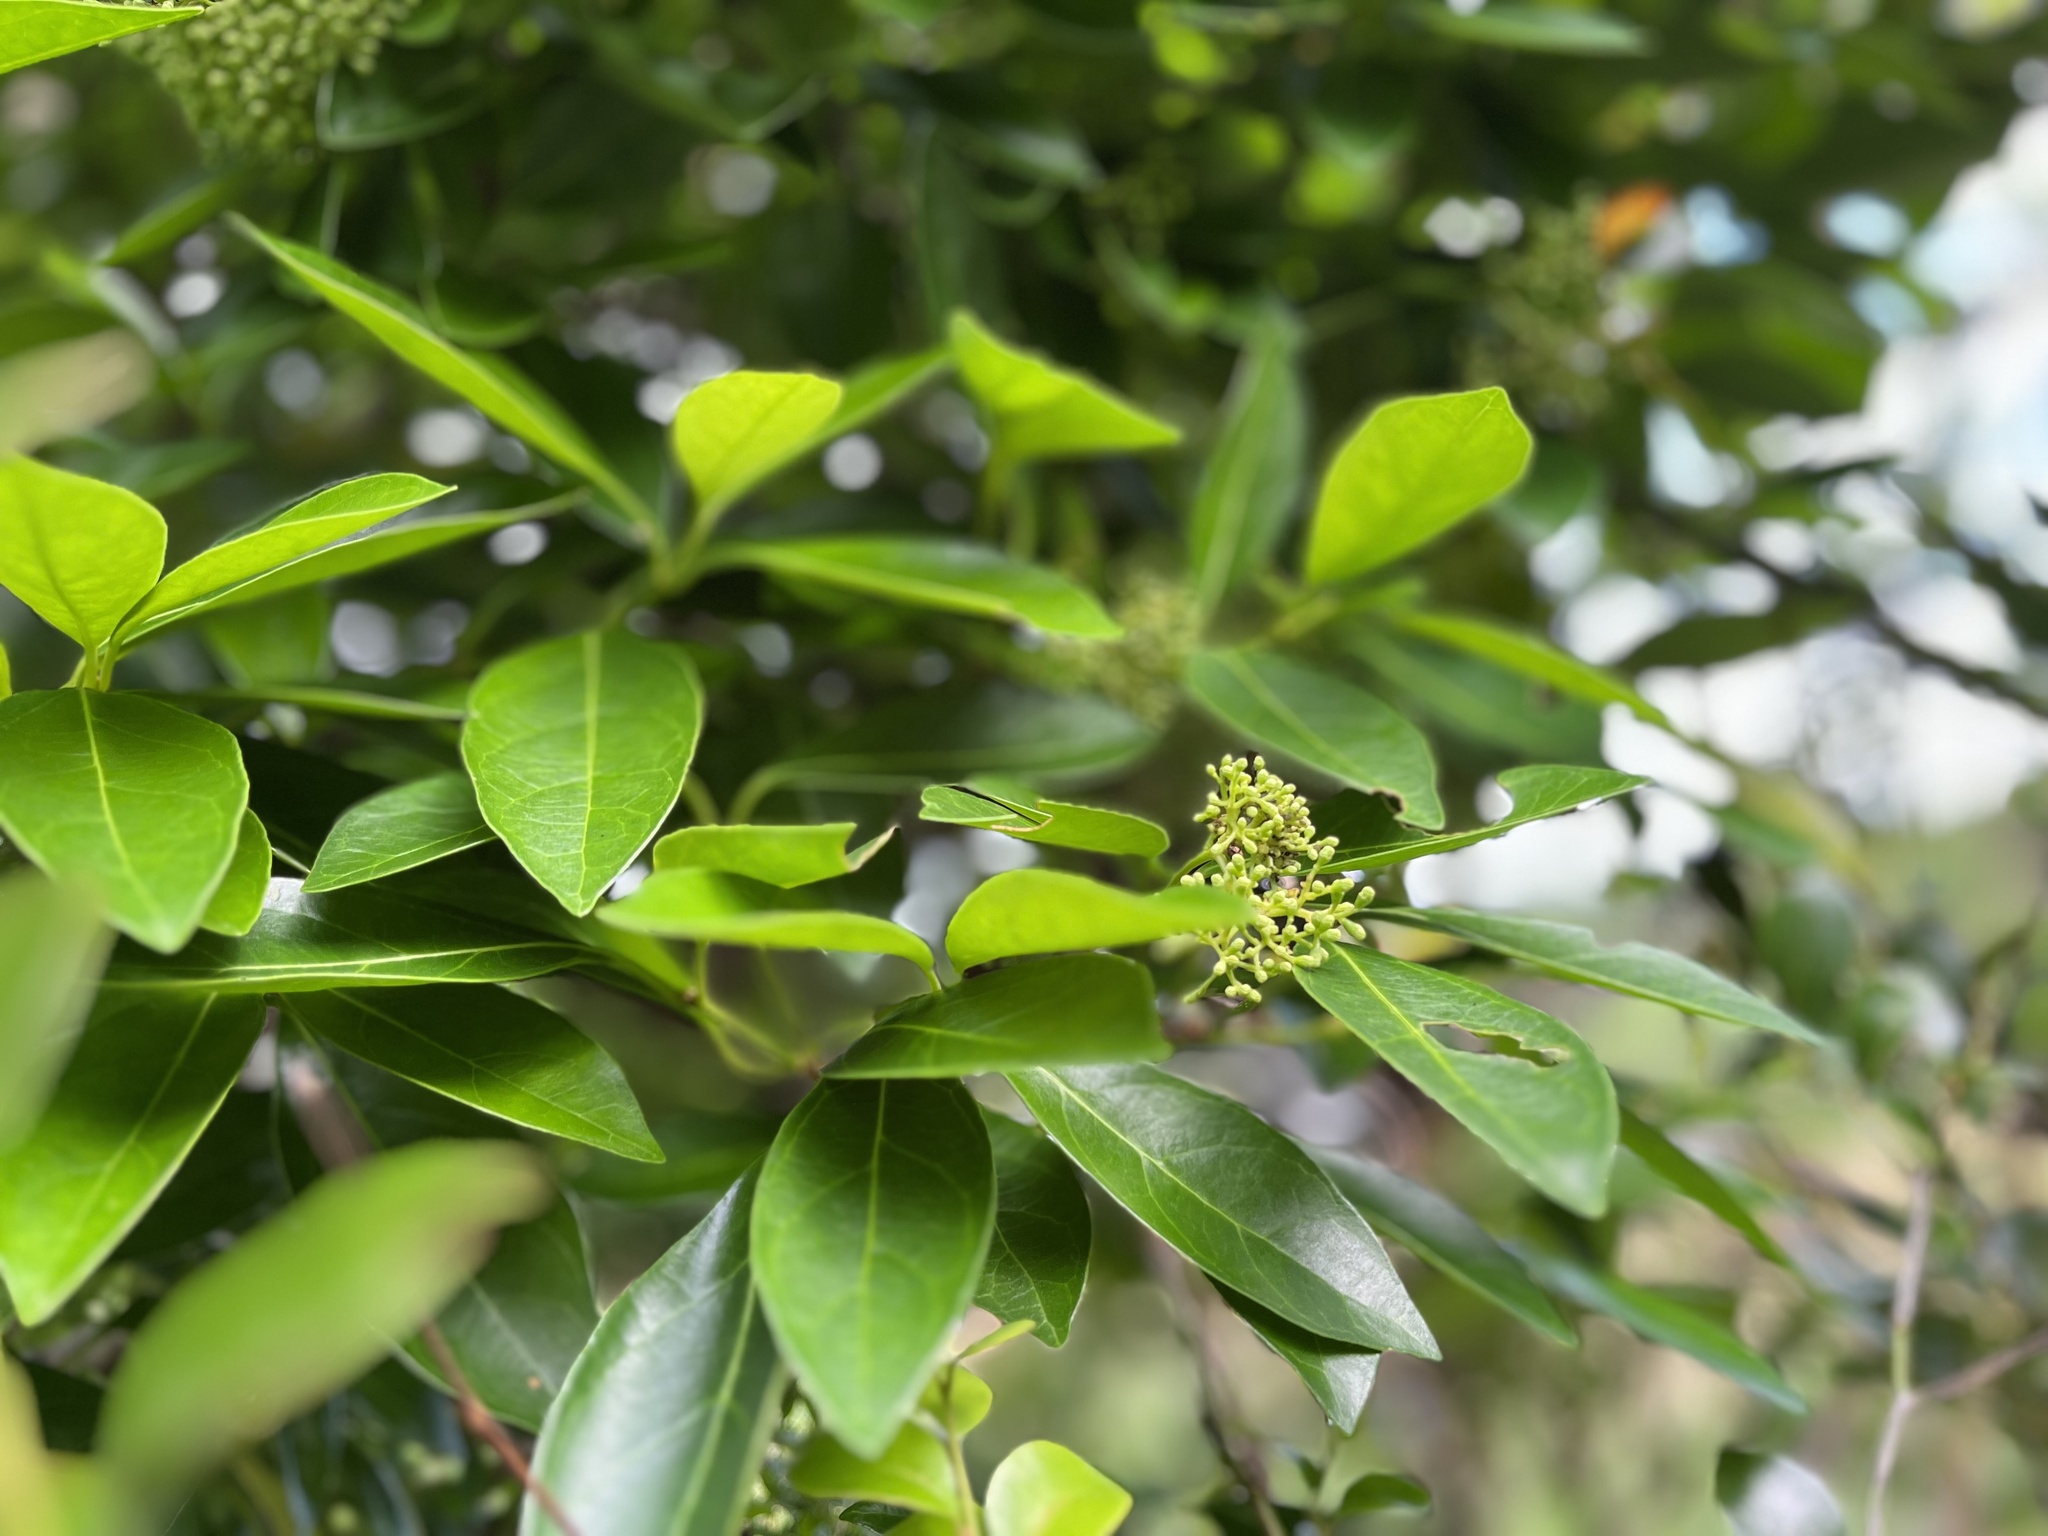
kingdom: Plantae
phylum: Tracheophyta
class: Magnoliopsida
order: Dipsacales
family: Viburnaceae
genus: Viburnum
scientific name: Viburnum odoratissimum
